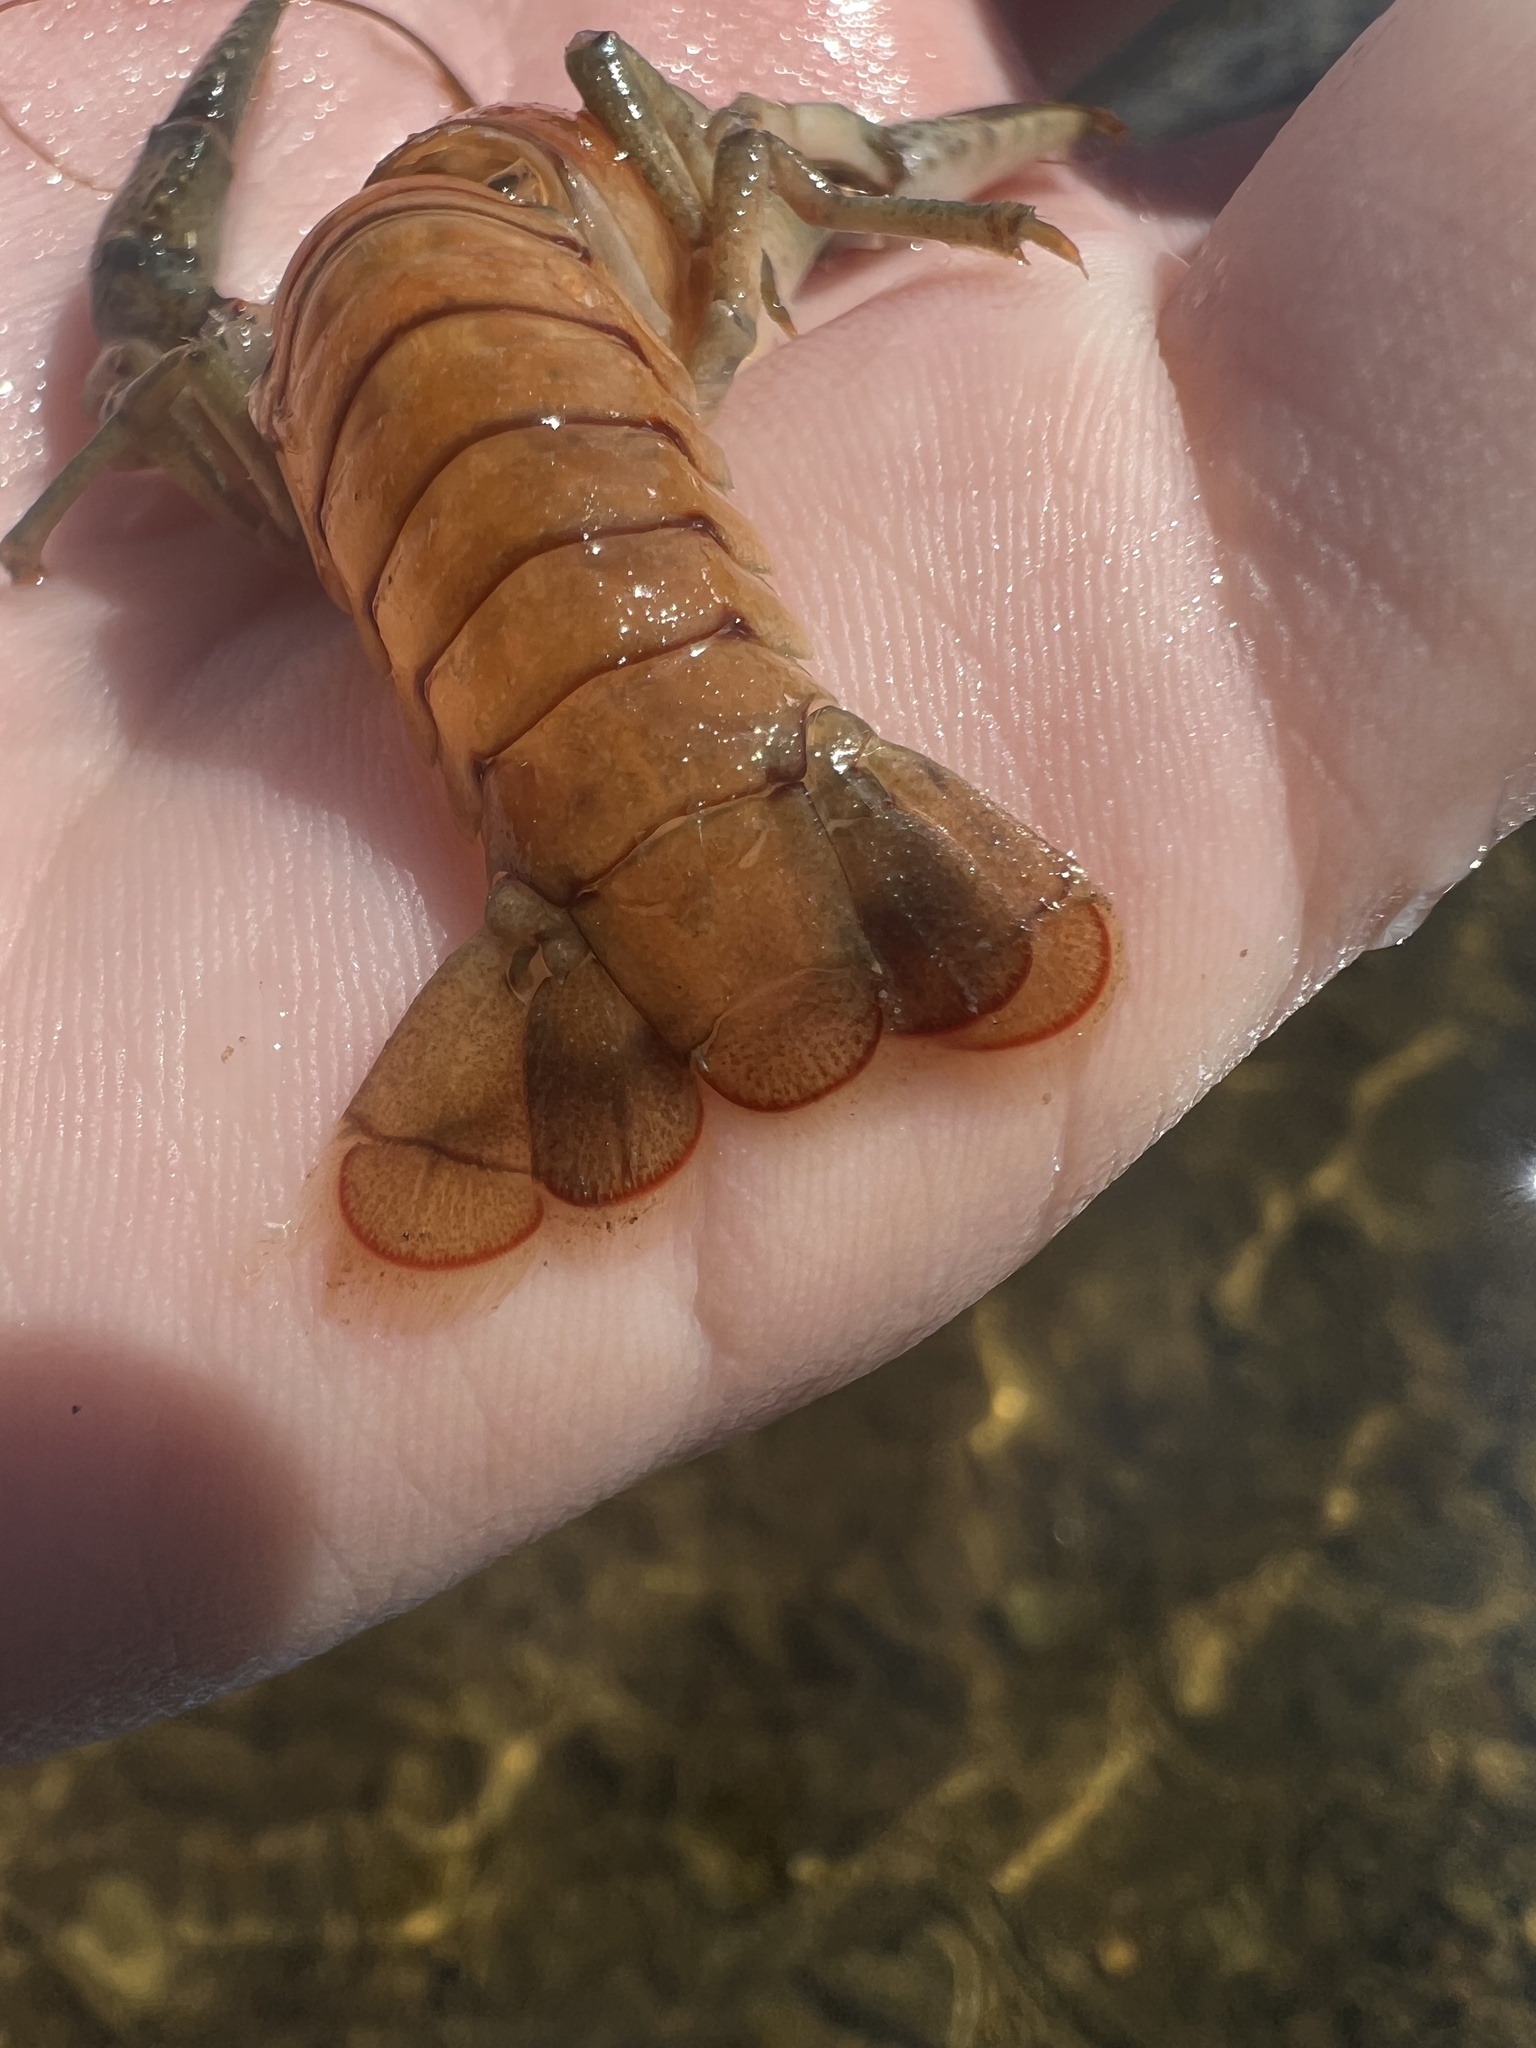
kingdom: Animalia
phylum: Arthropoda
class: Malacostraca
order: Decapoda
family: Cambaridae
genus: Faxonius
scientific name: Faxonius virilis
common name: Virile crayfish
